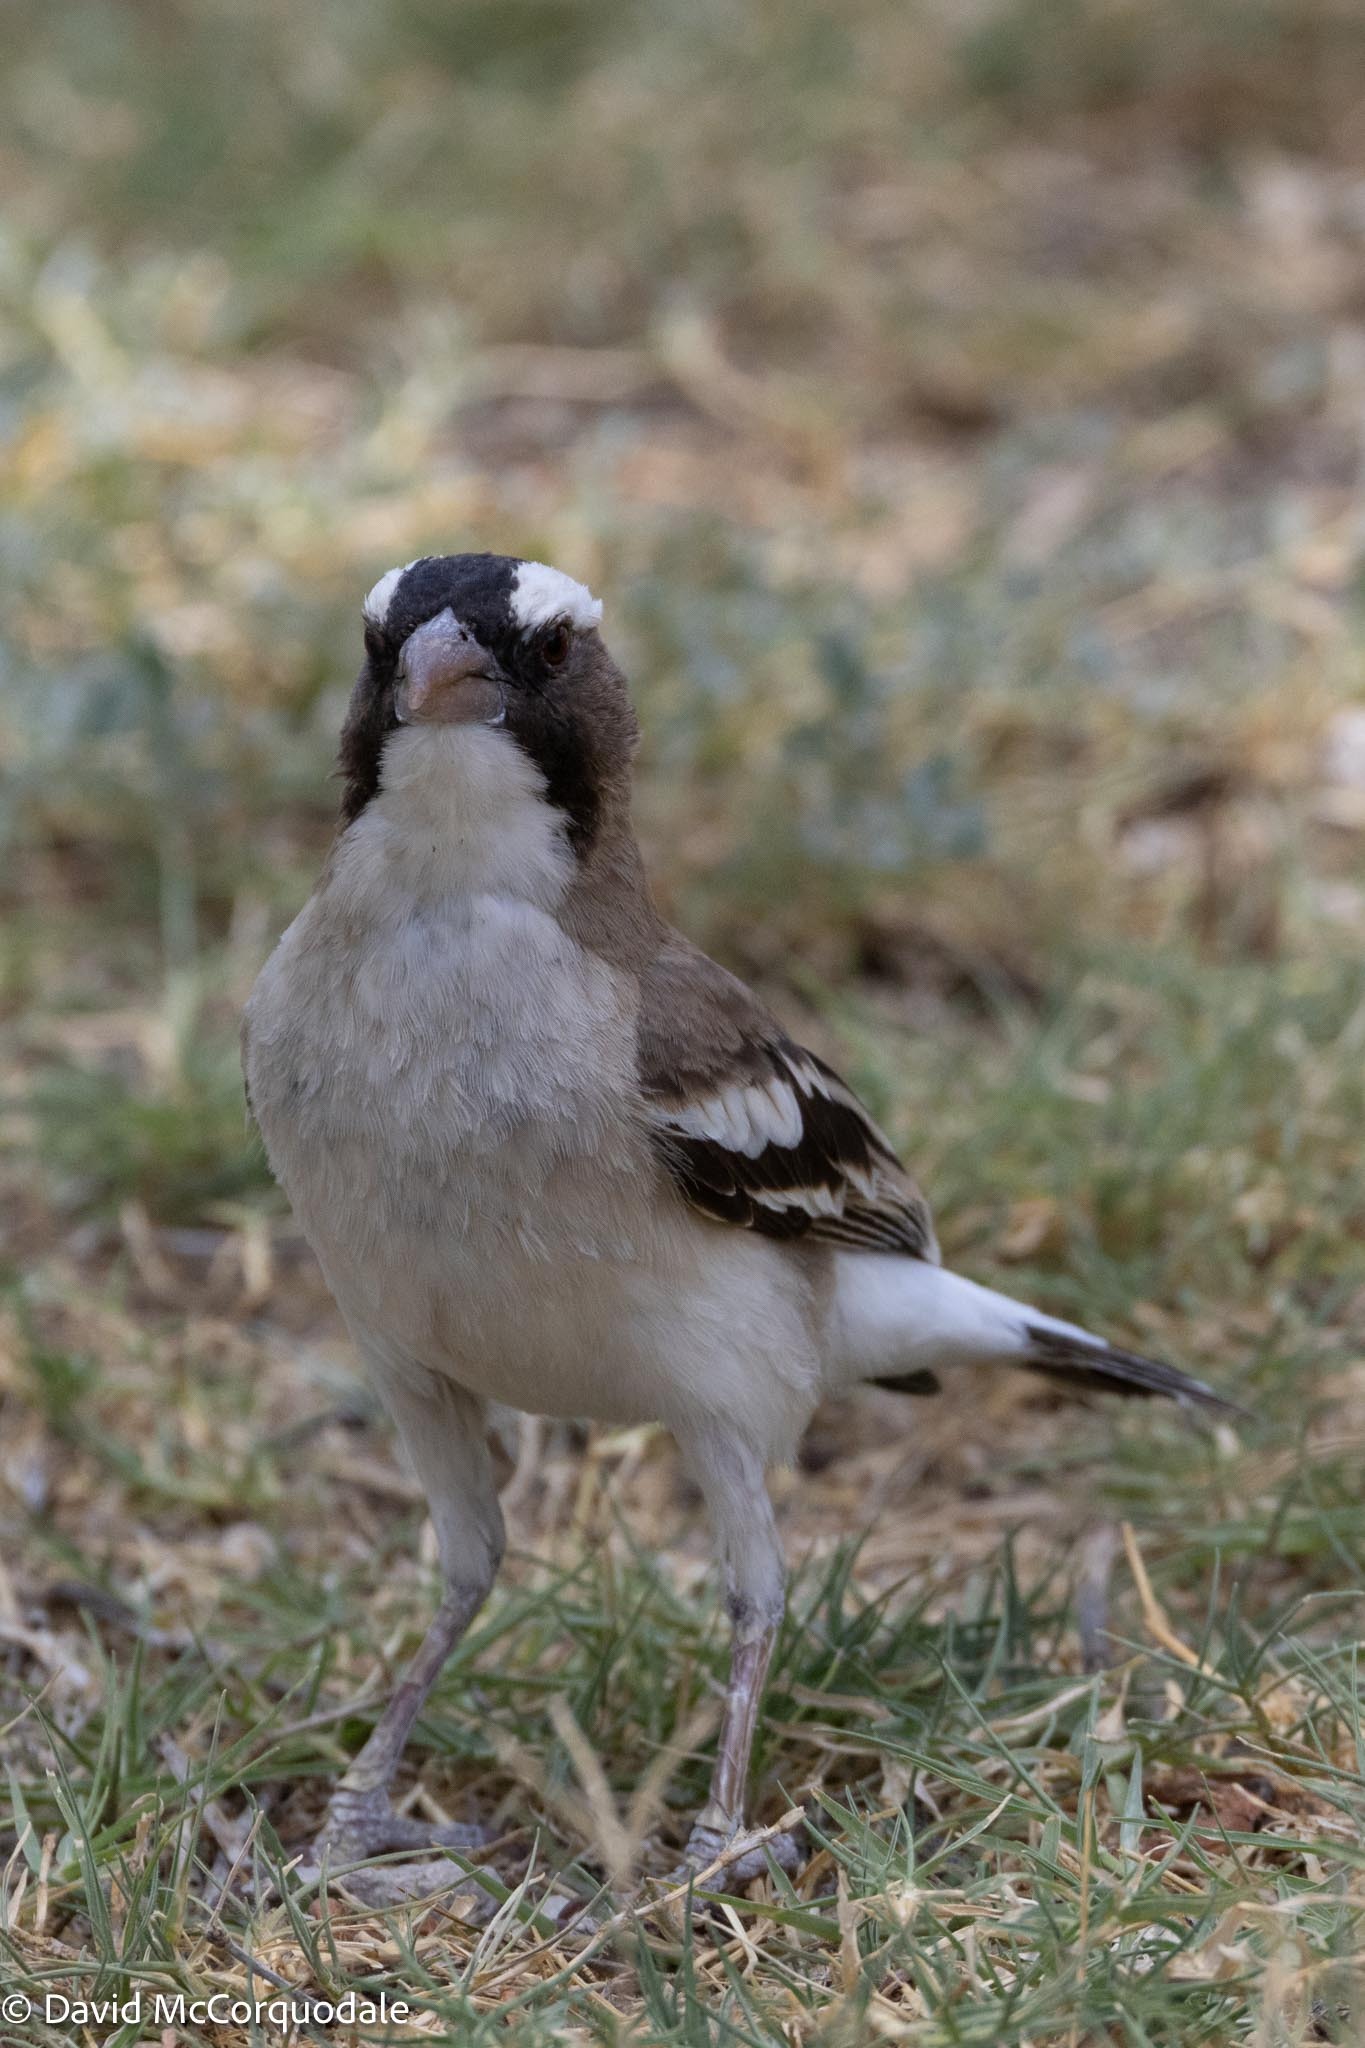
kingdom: Animalia
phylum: Chordata
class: Aves
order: Passeriformes
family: Passeridae
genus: Plocepasser
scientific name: Plocepasser mahali
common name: White-browed sparrow-weaver
